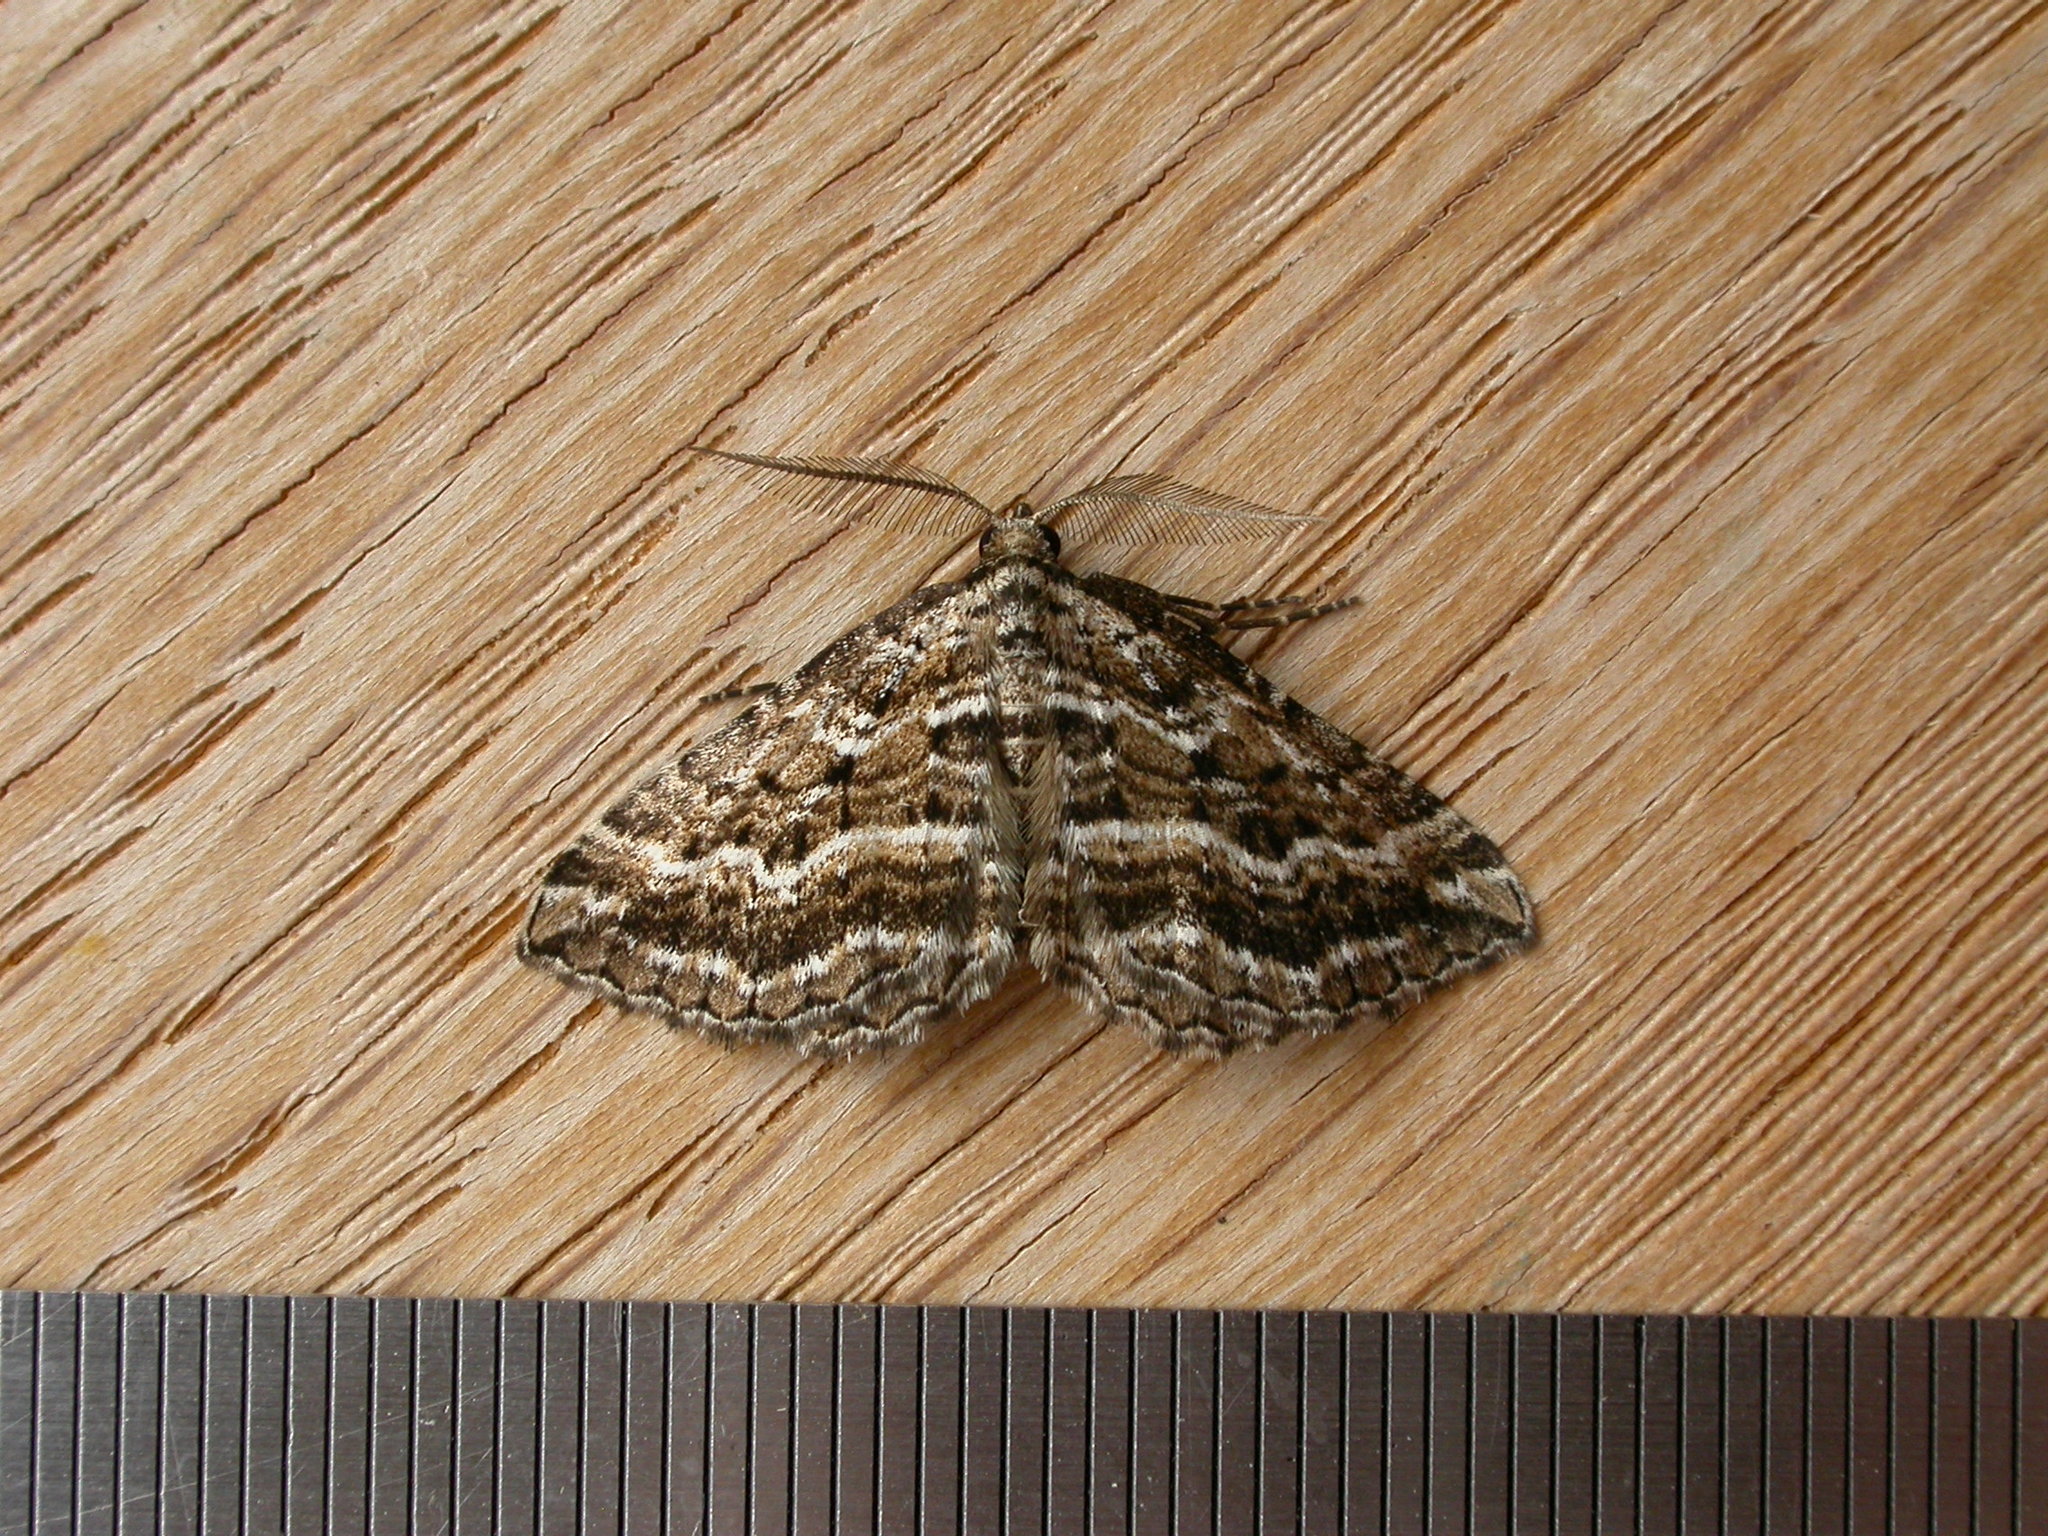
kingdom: Animalia
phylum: Arthropoda
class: Insecta
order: Lepidoptera
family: Geometridae
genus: Aponotoreas
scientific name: Aponotoreas epicrossa
